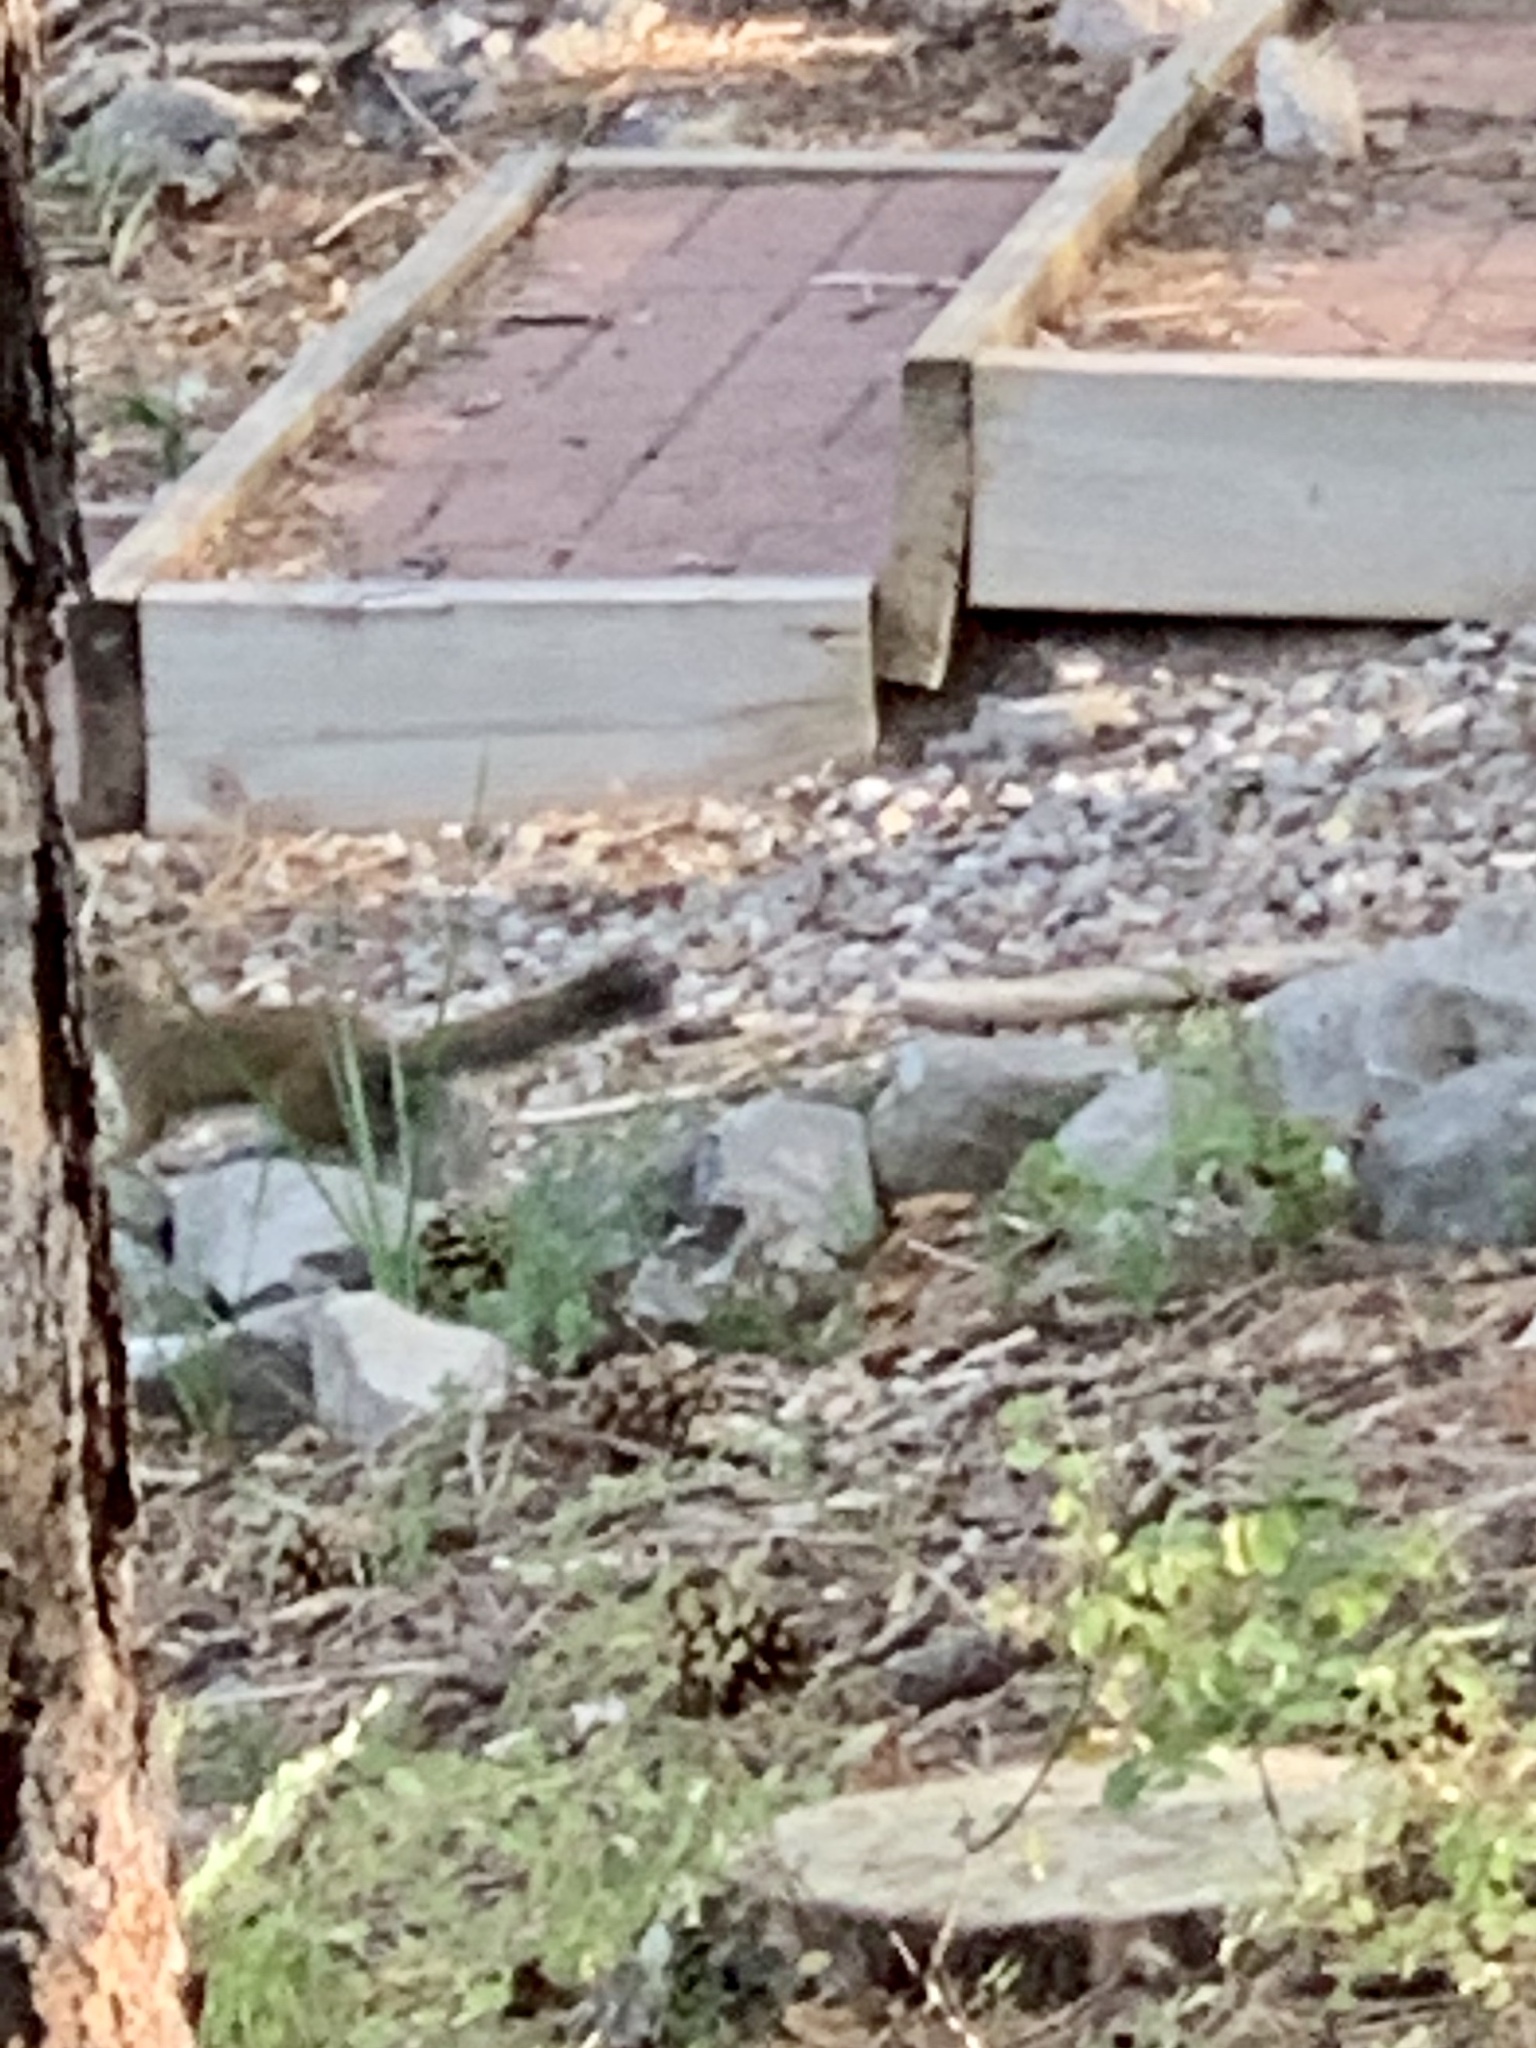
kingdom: Animalia
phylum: Chordata
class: Mammalia
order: Rodentia
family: Sciuridae
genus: Tamiasciurus
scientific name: Tamiasciurus hudsonicus
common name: Red squirrel
